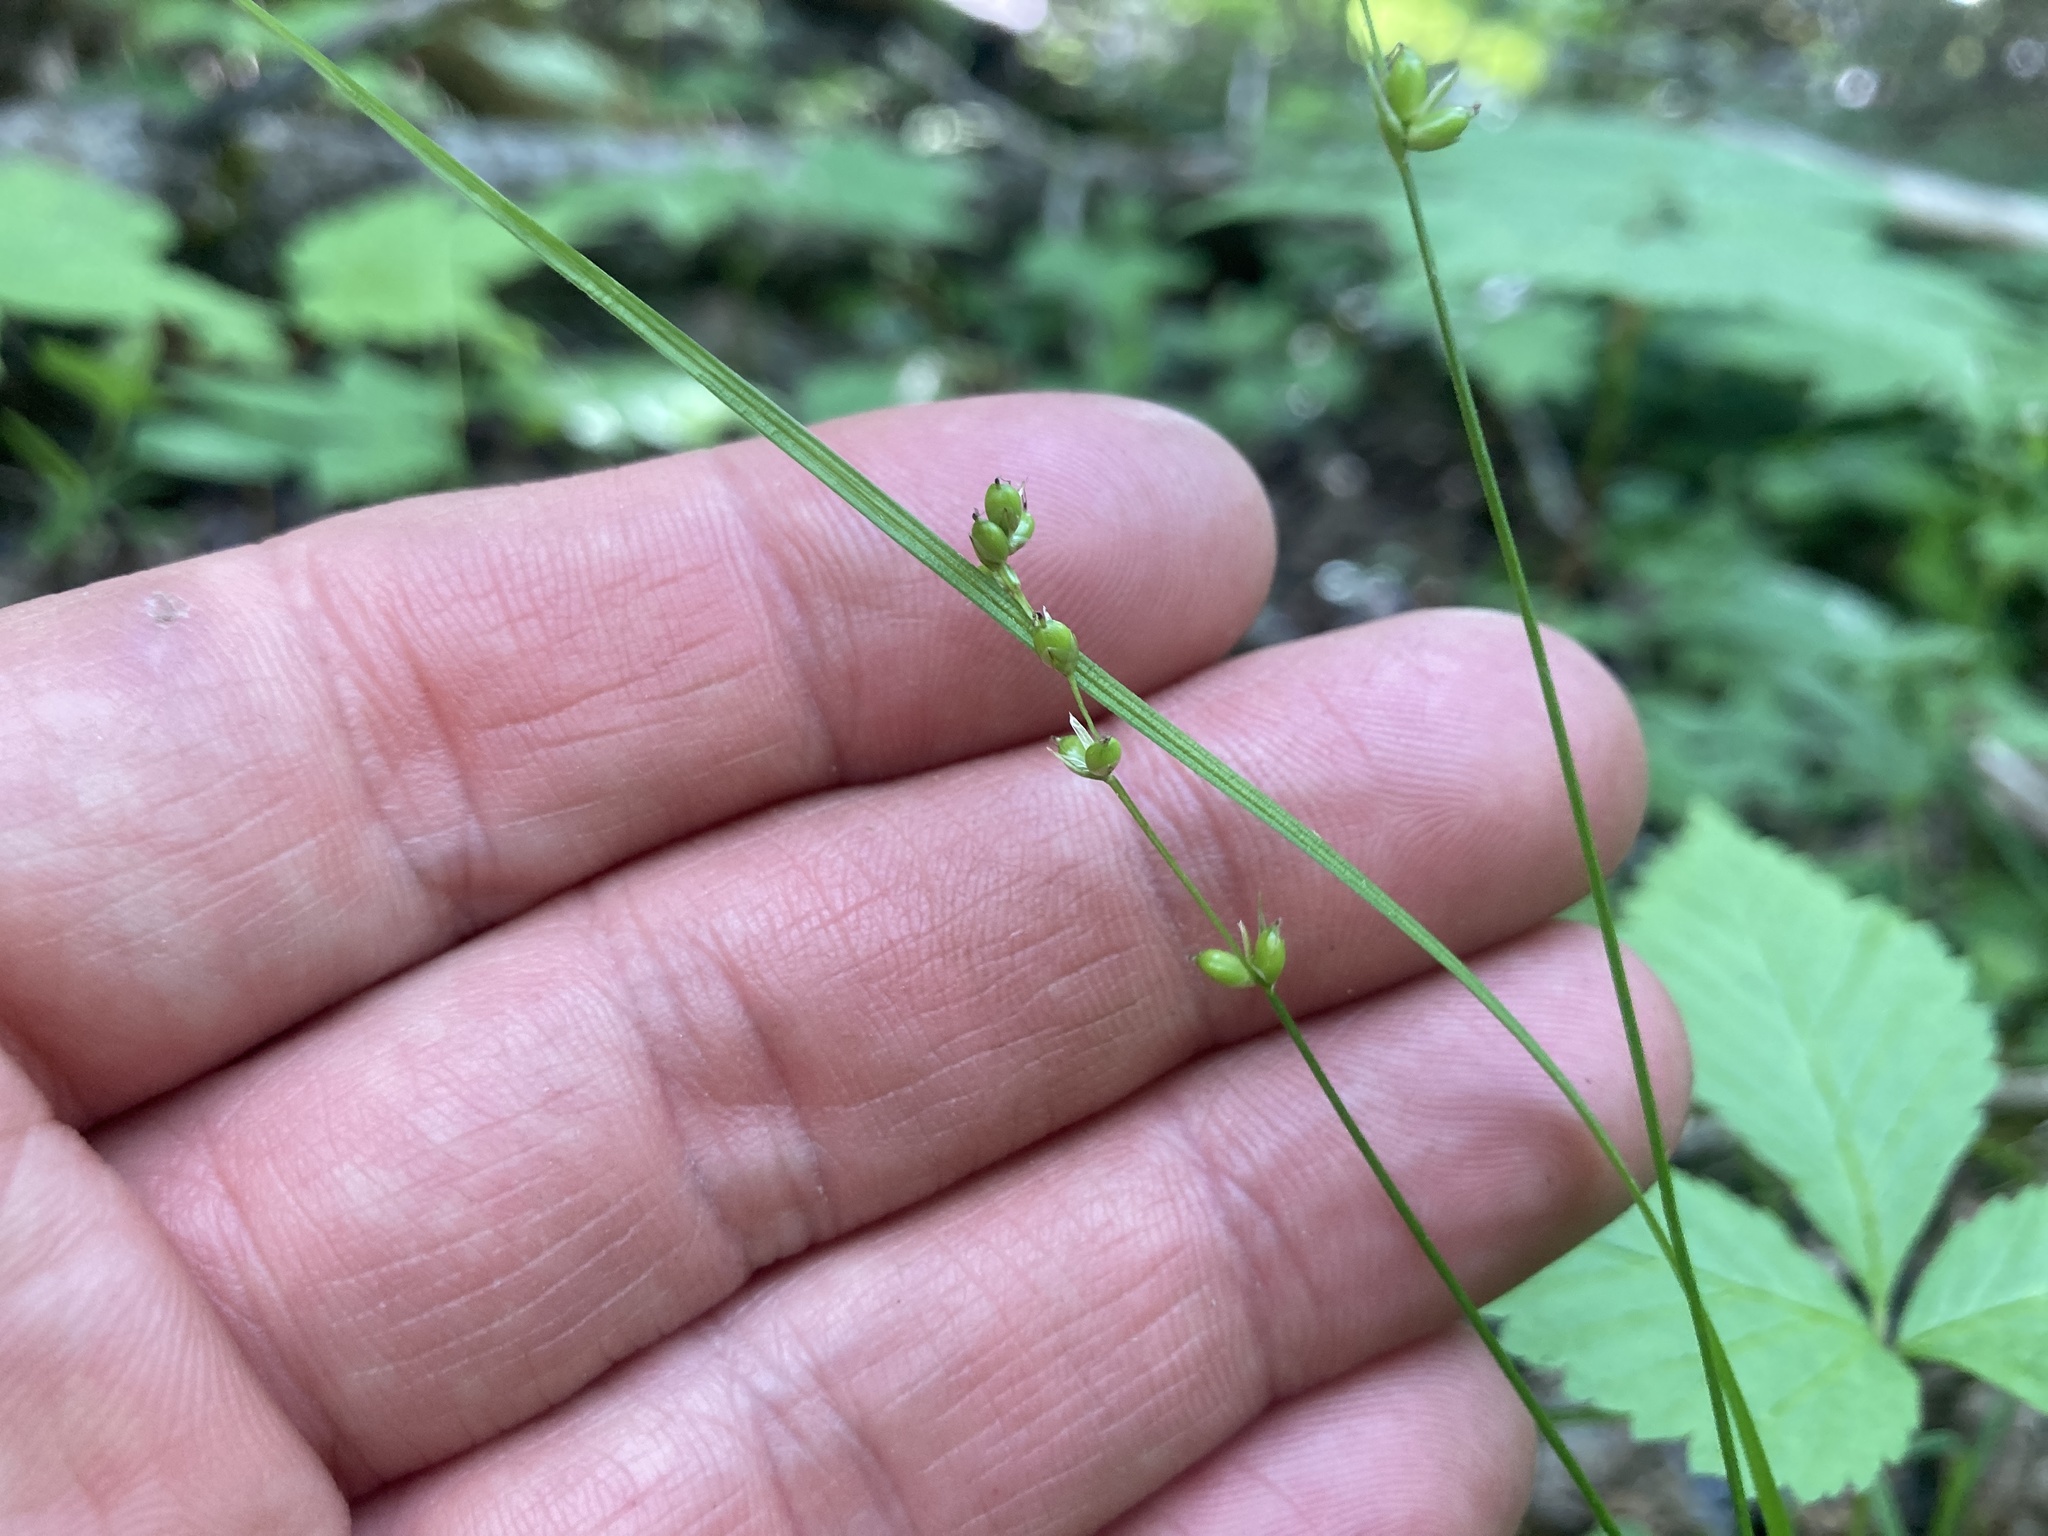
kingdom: Plantae
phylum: Tracheophyta
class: Liliopsida
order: Poales
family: Cyperaceae
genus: Carex
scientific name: Carex disperma
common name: Short-leaved sedge
